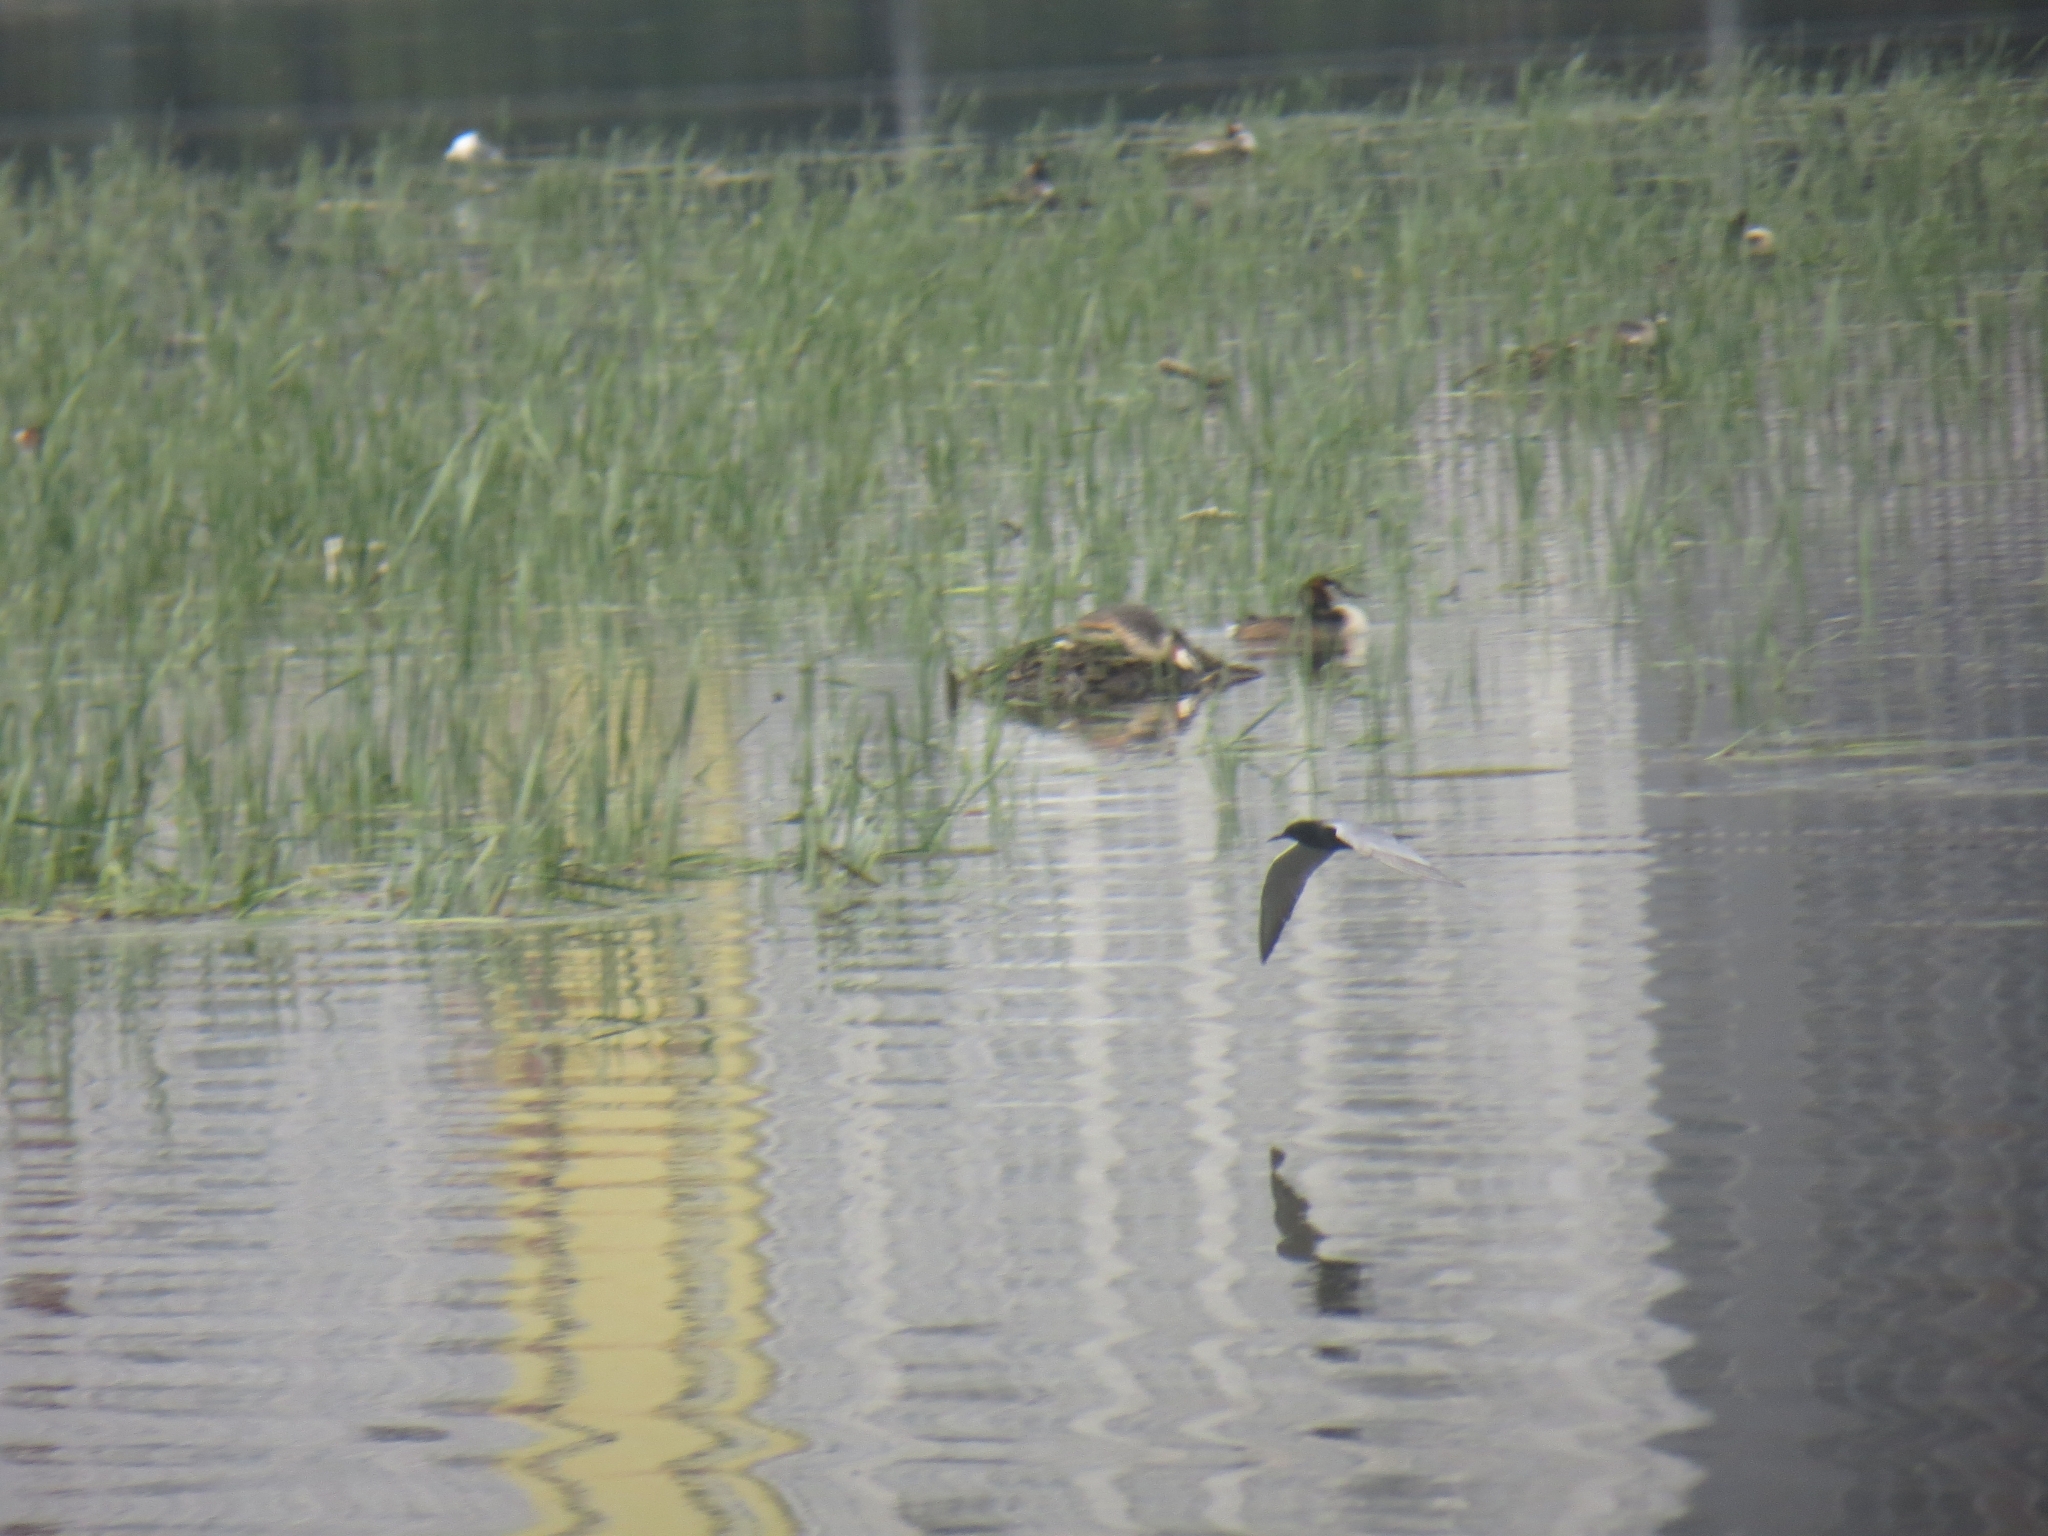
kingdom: Animalia
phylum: Chordata
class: Aves
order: Charadriiformes
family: Laridae
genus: Chlidonias
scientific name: Chlidonias niger
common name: Black tern
